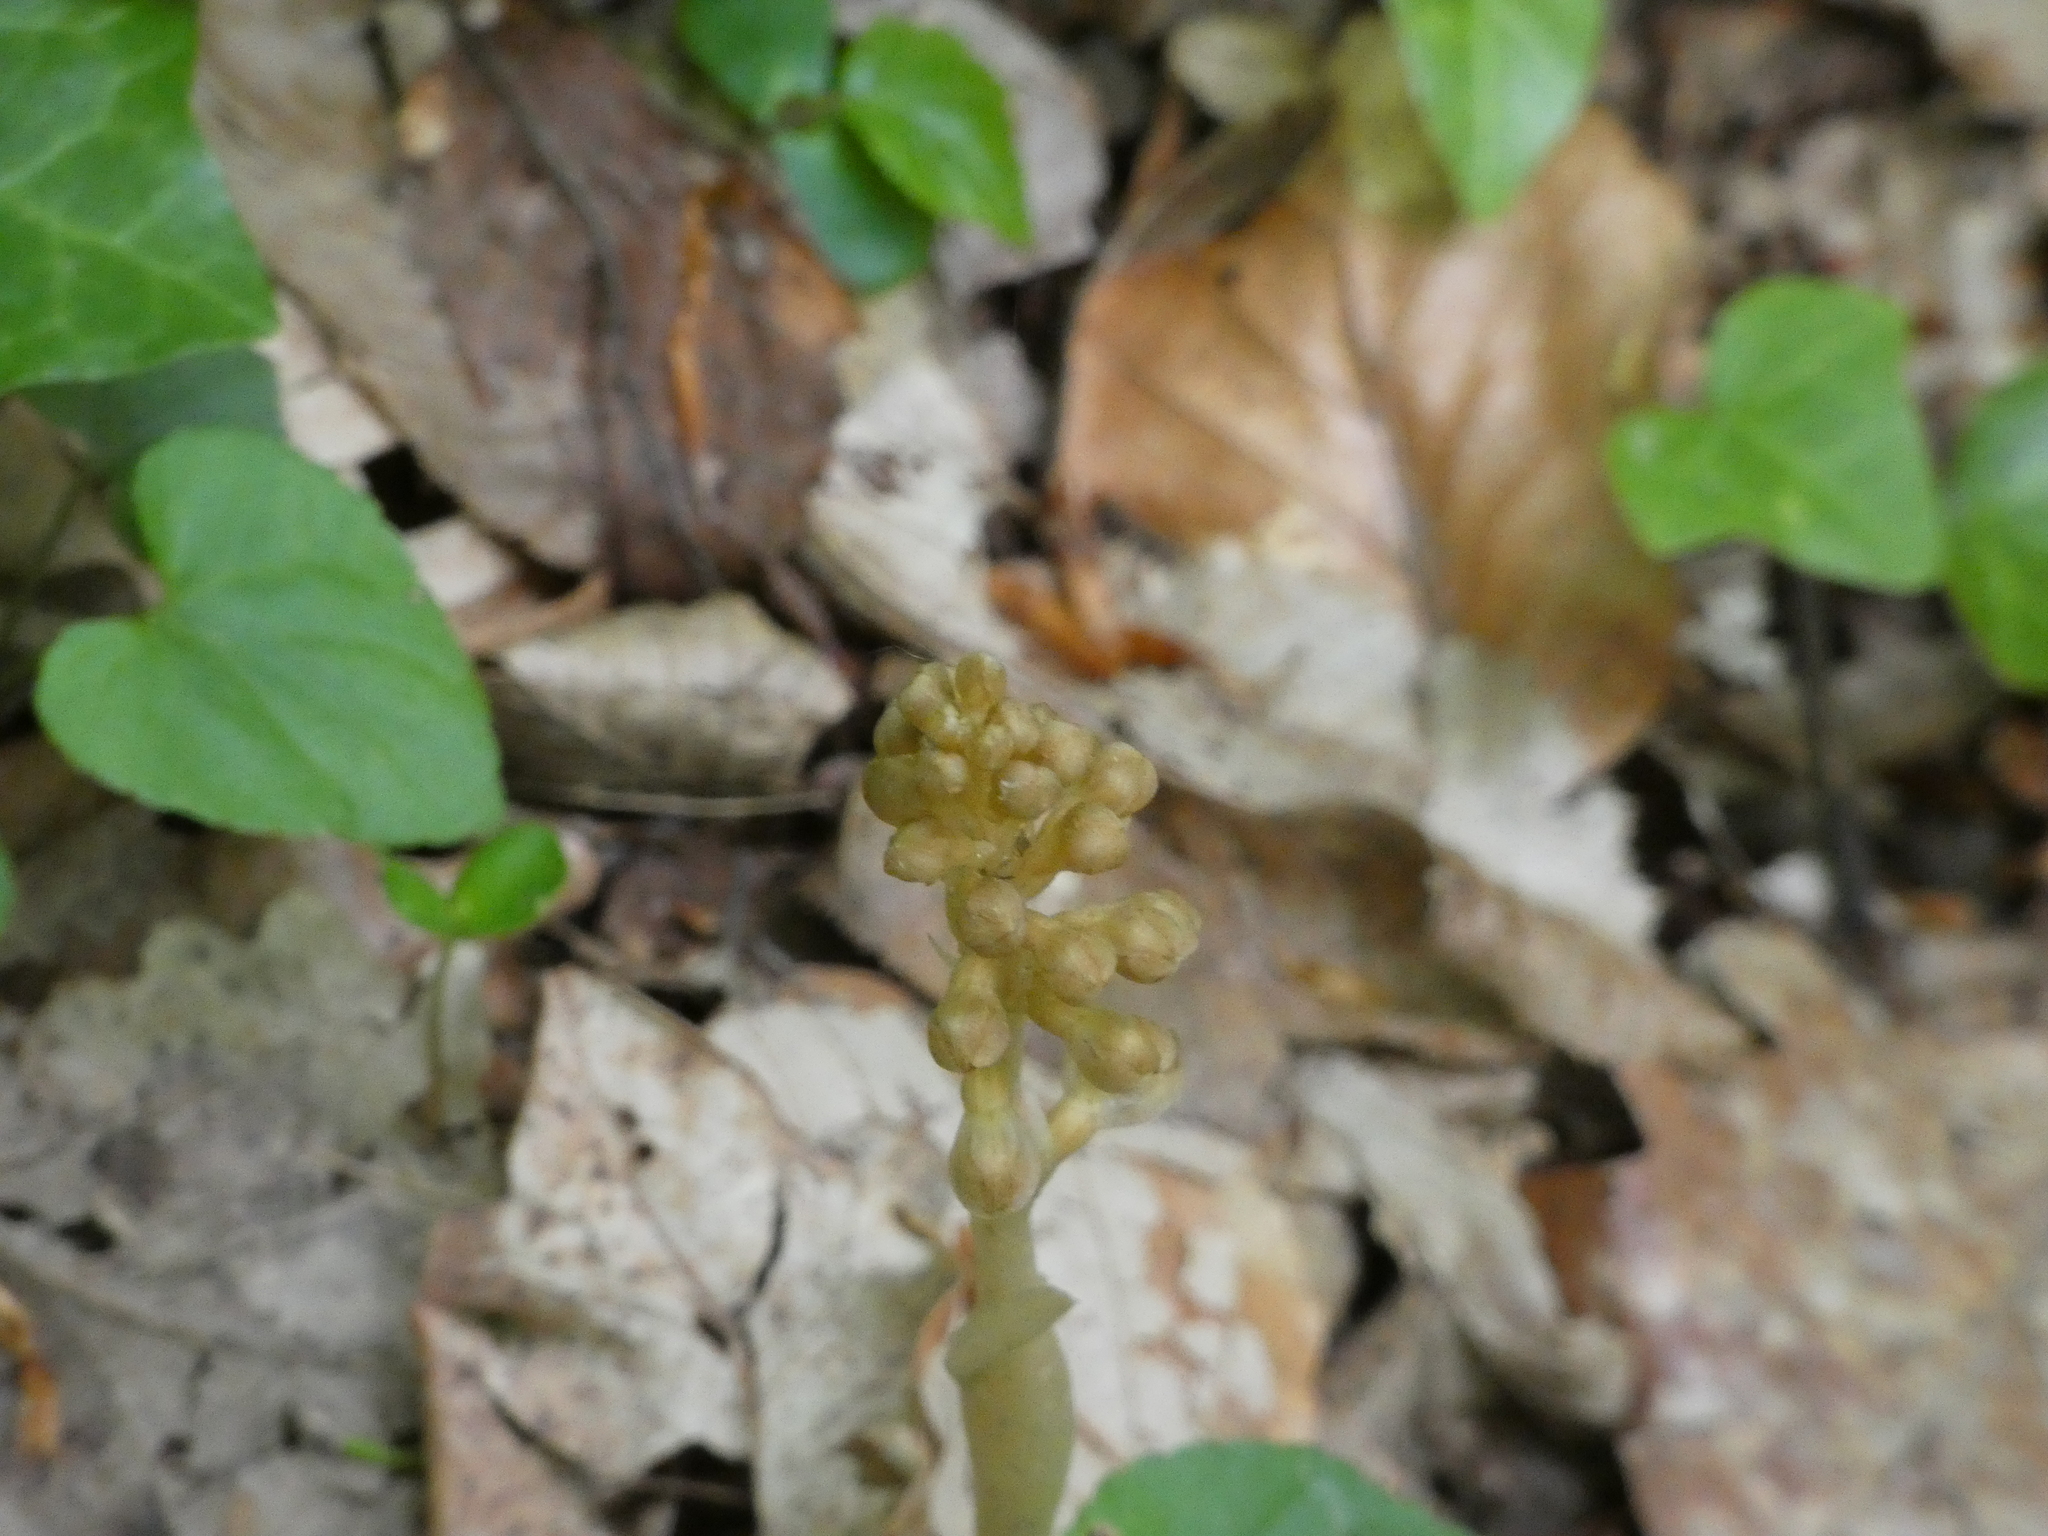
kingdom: Plantae
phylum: Tracheophyta
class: Liliopsida
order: Asparagales
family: Orchidaceae
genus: Neottia
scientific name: Neottia nidus-avis
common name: Bird's-nest orchid
